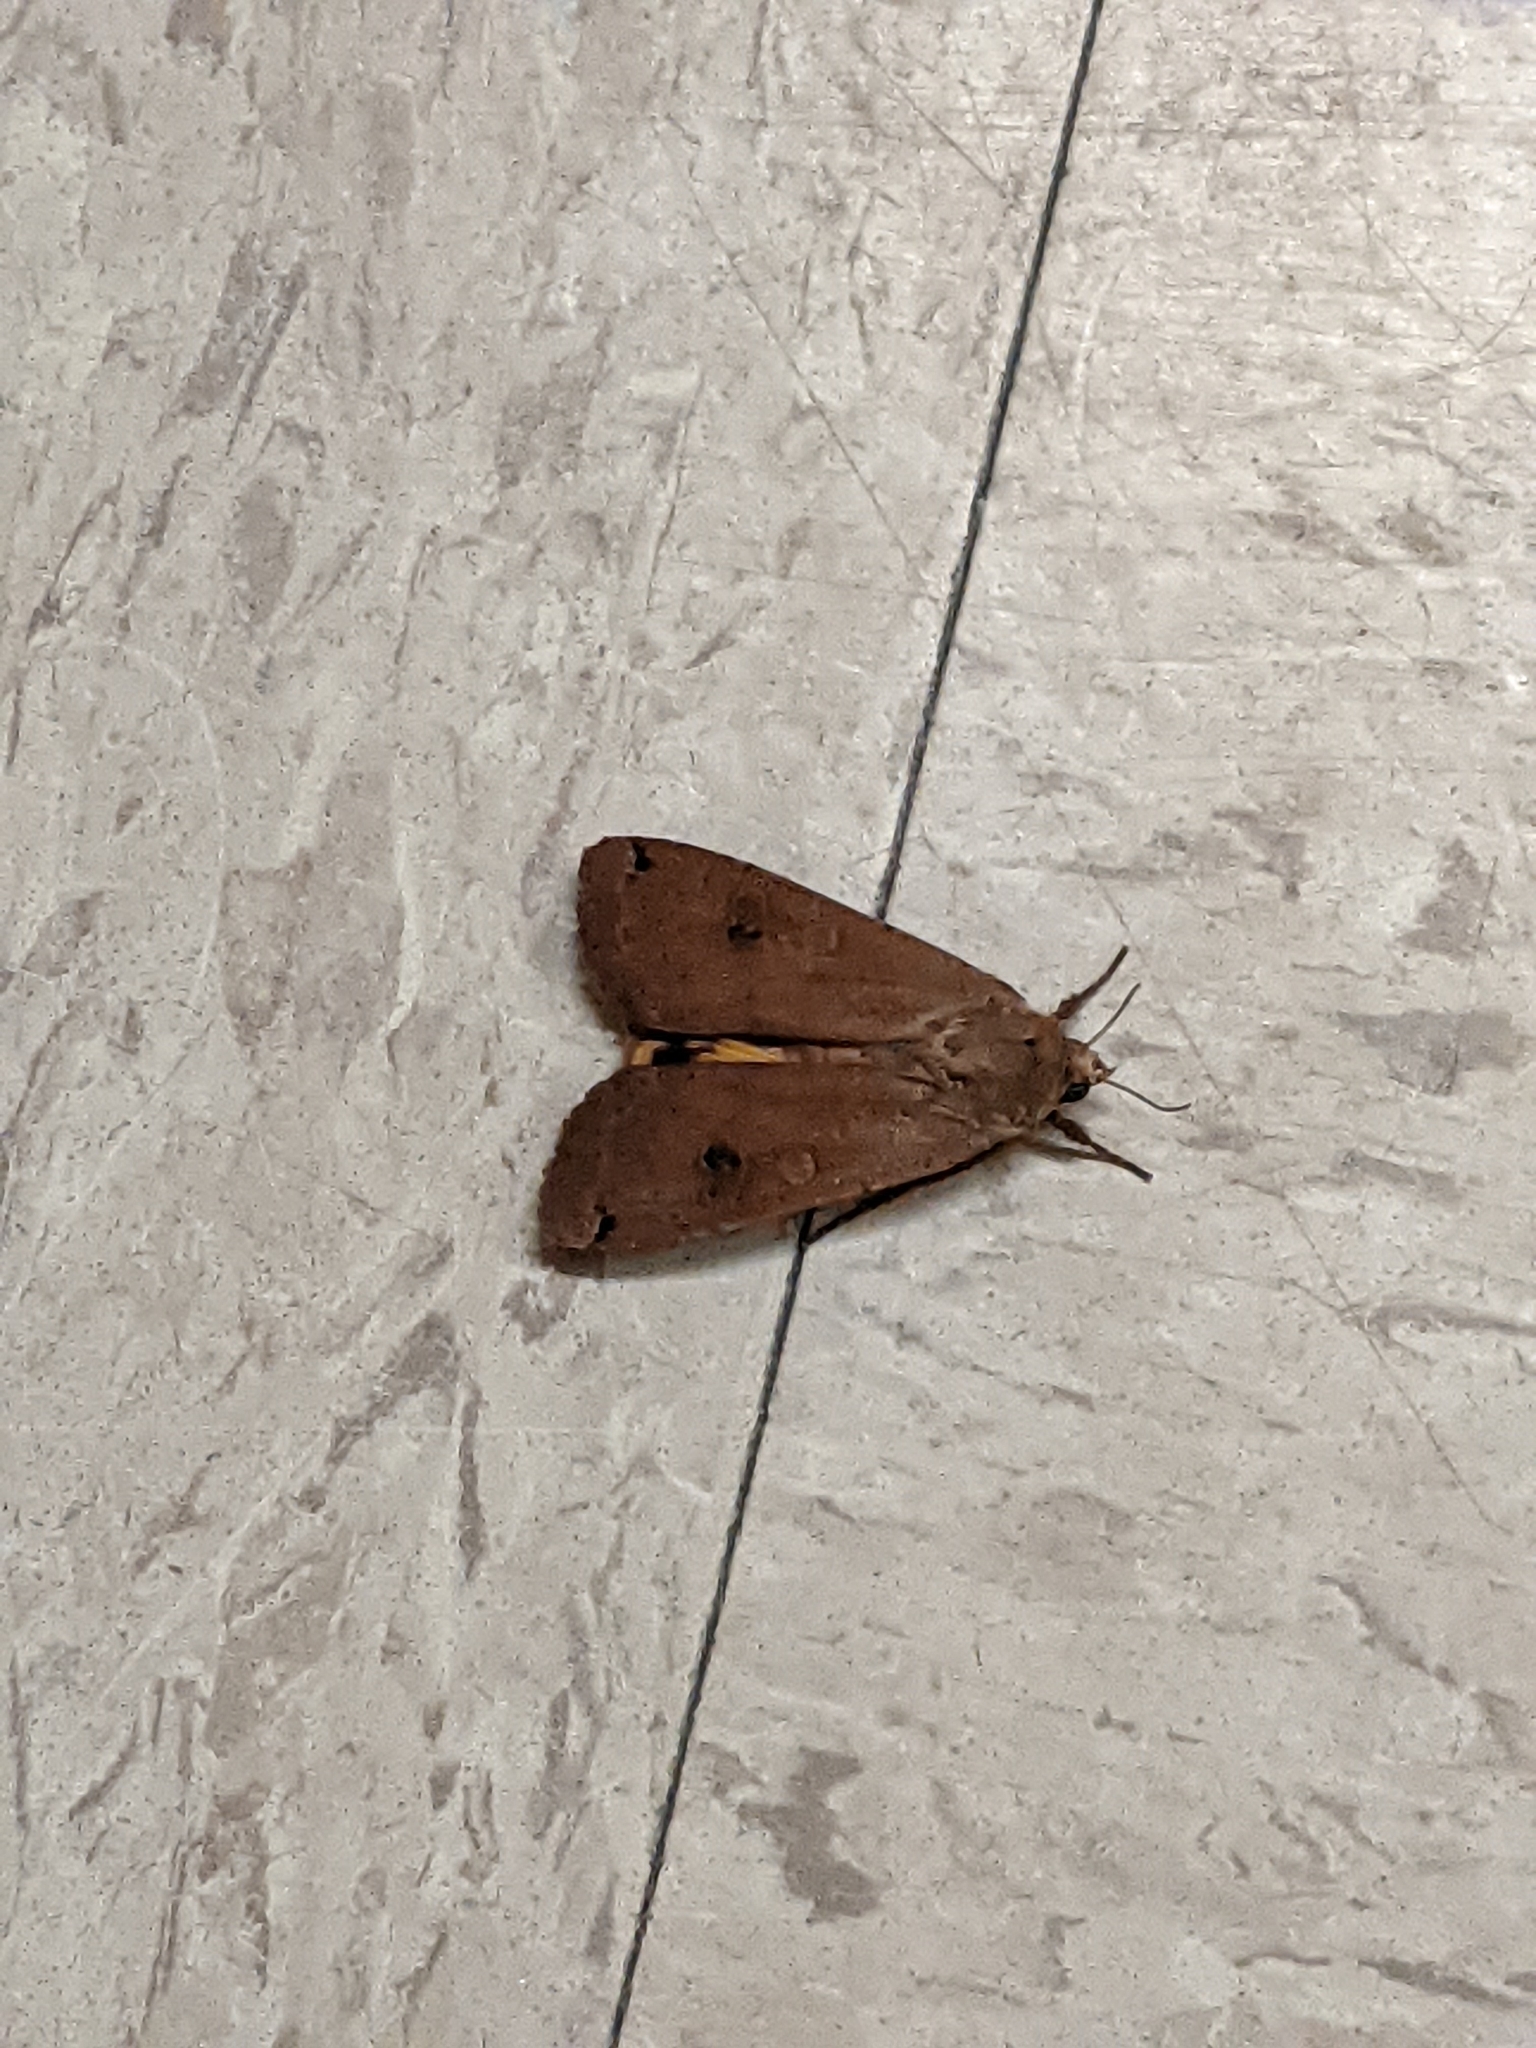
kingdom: Animalia
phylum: Arthropoda
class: Insecta
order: Lepidoptera
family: Noctuidae
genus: Noctua
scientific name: Noctua pronuba
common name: Large yellow underwing
